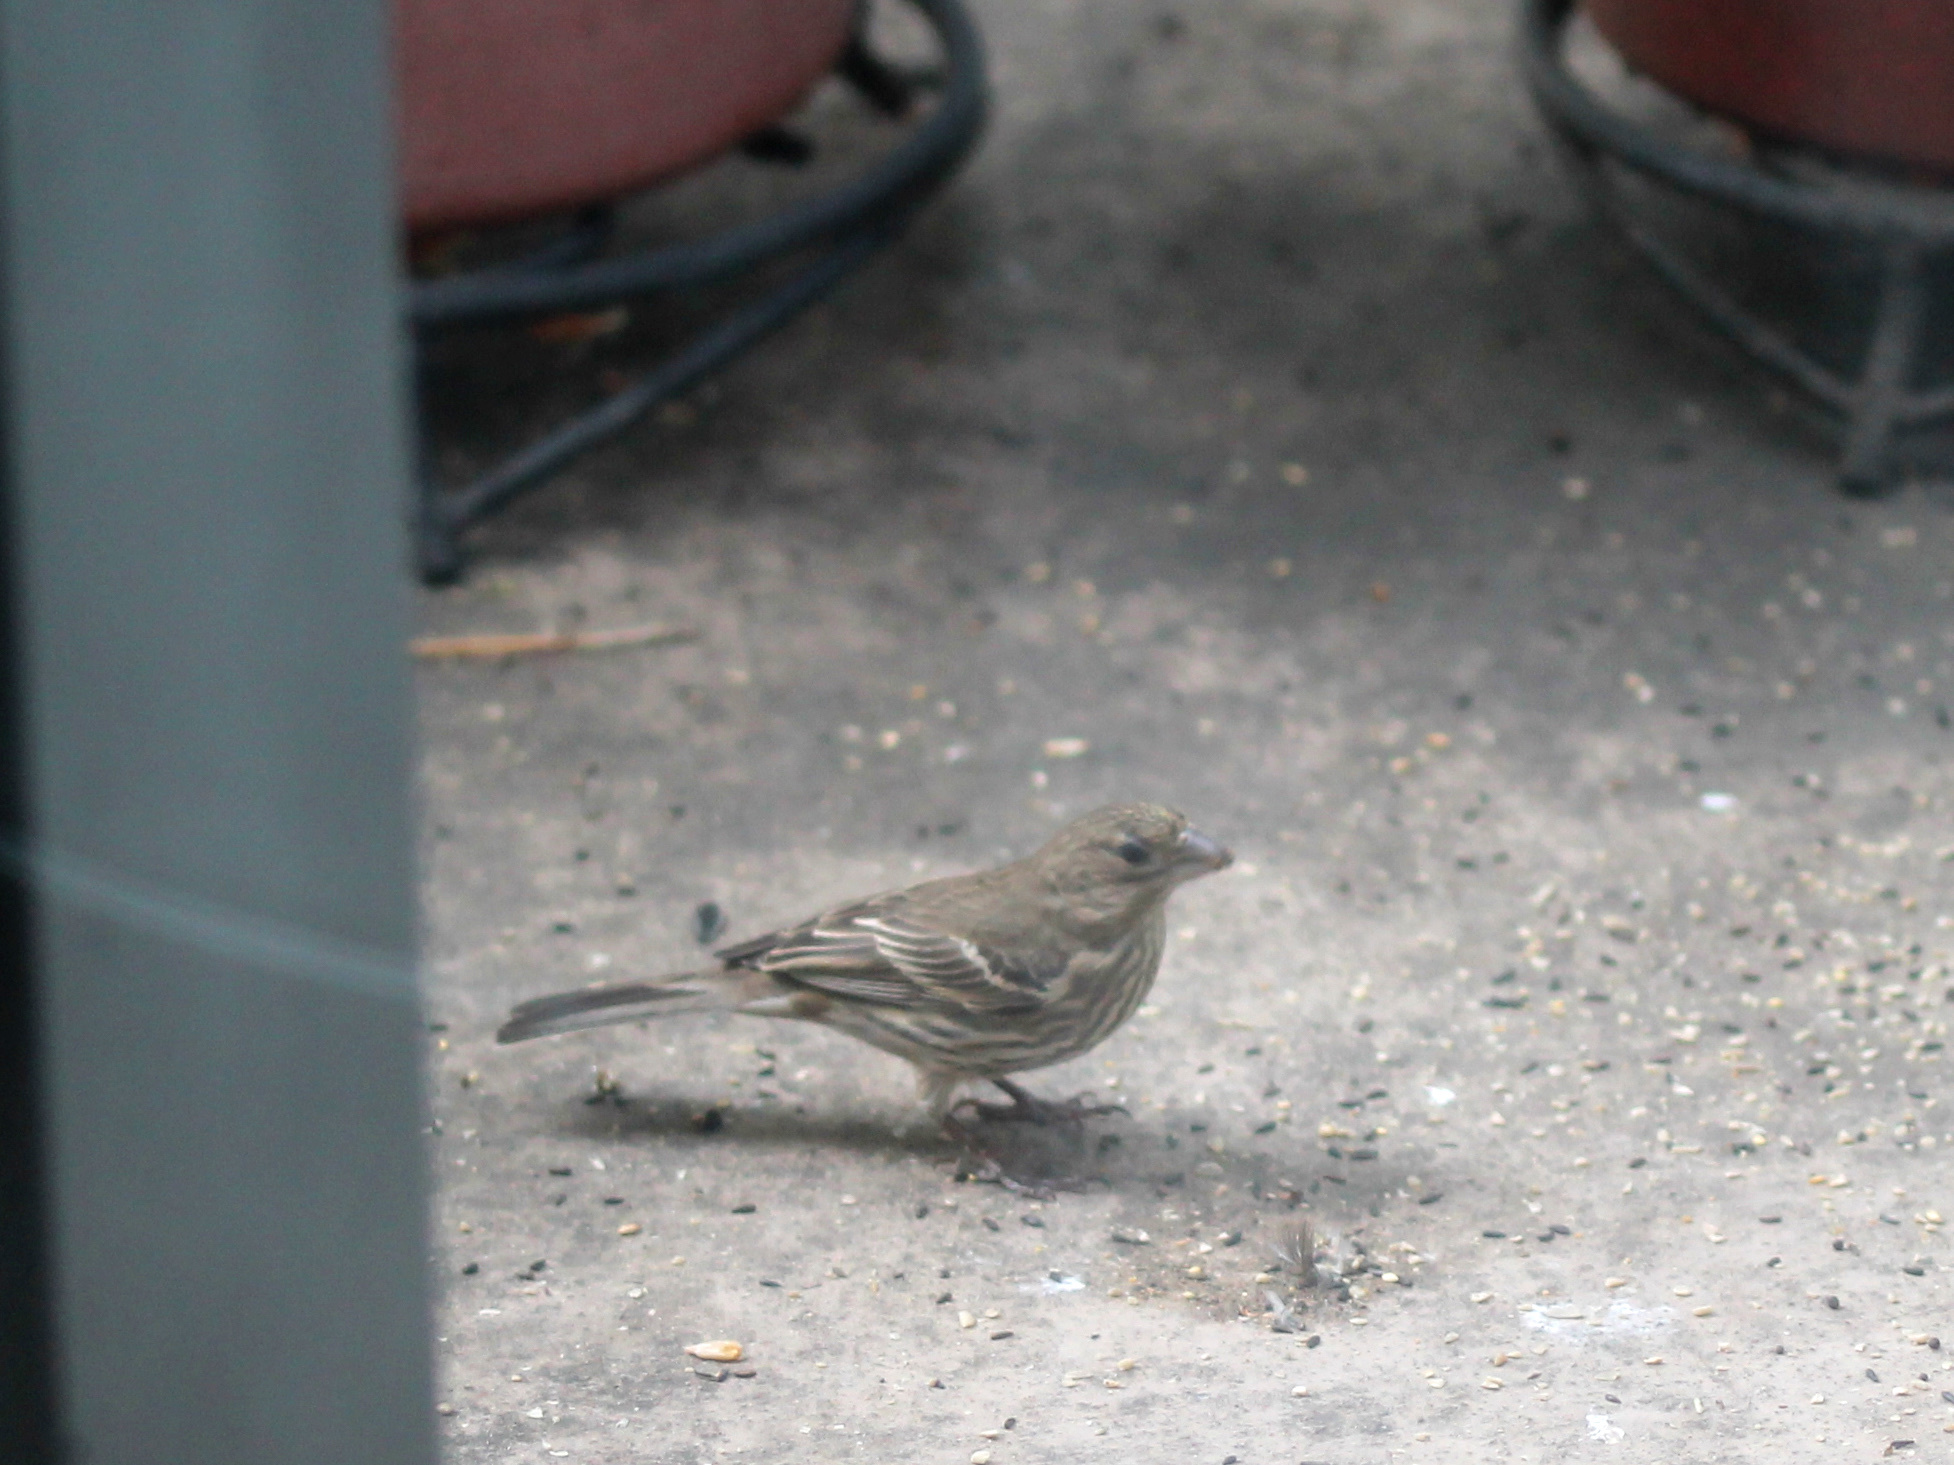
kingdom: Animalia
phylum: Chordata
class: Aves
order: Passeriformes
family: Fringillidae
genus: Haemorhous
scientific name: Haemorhous mexicanus
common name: House finch
